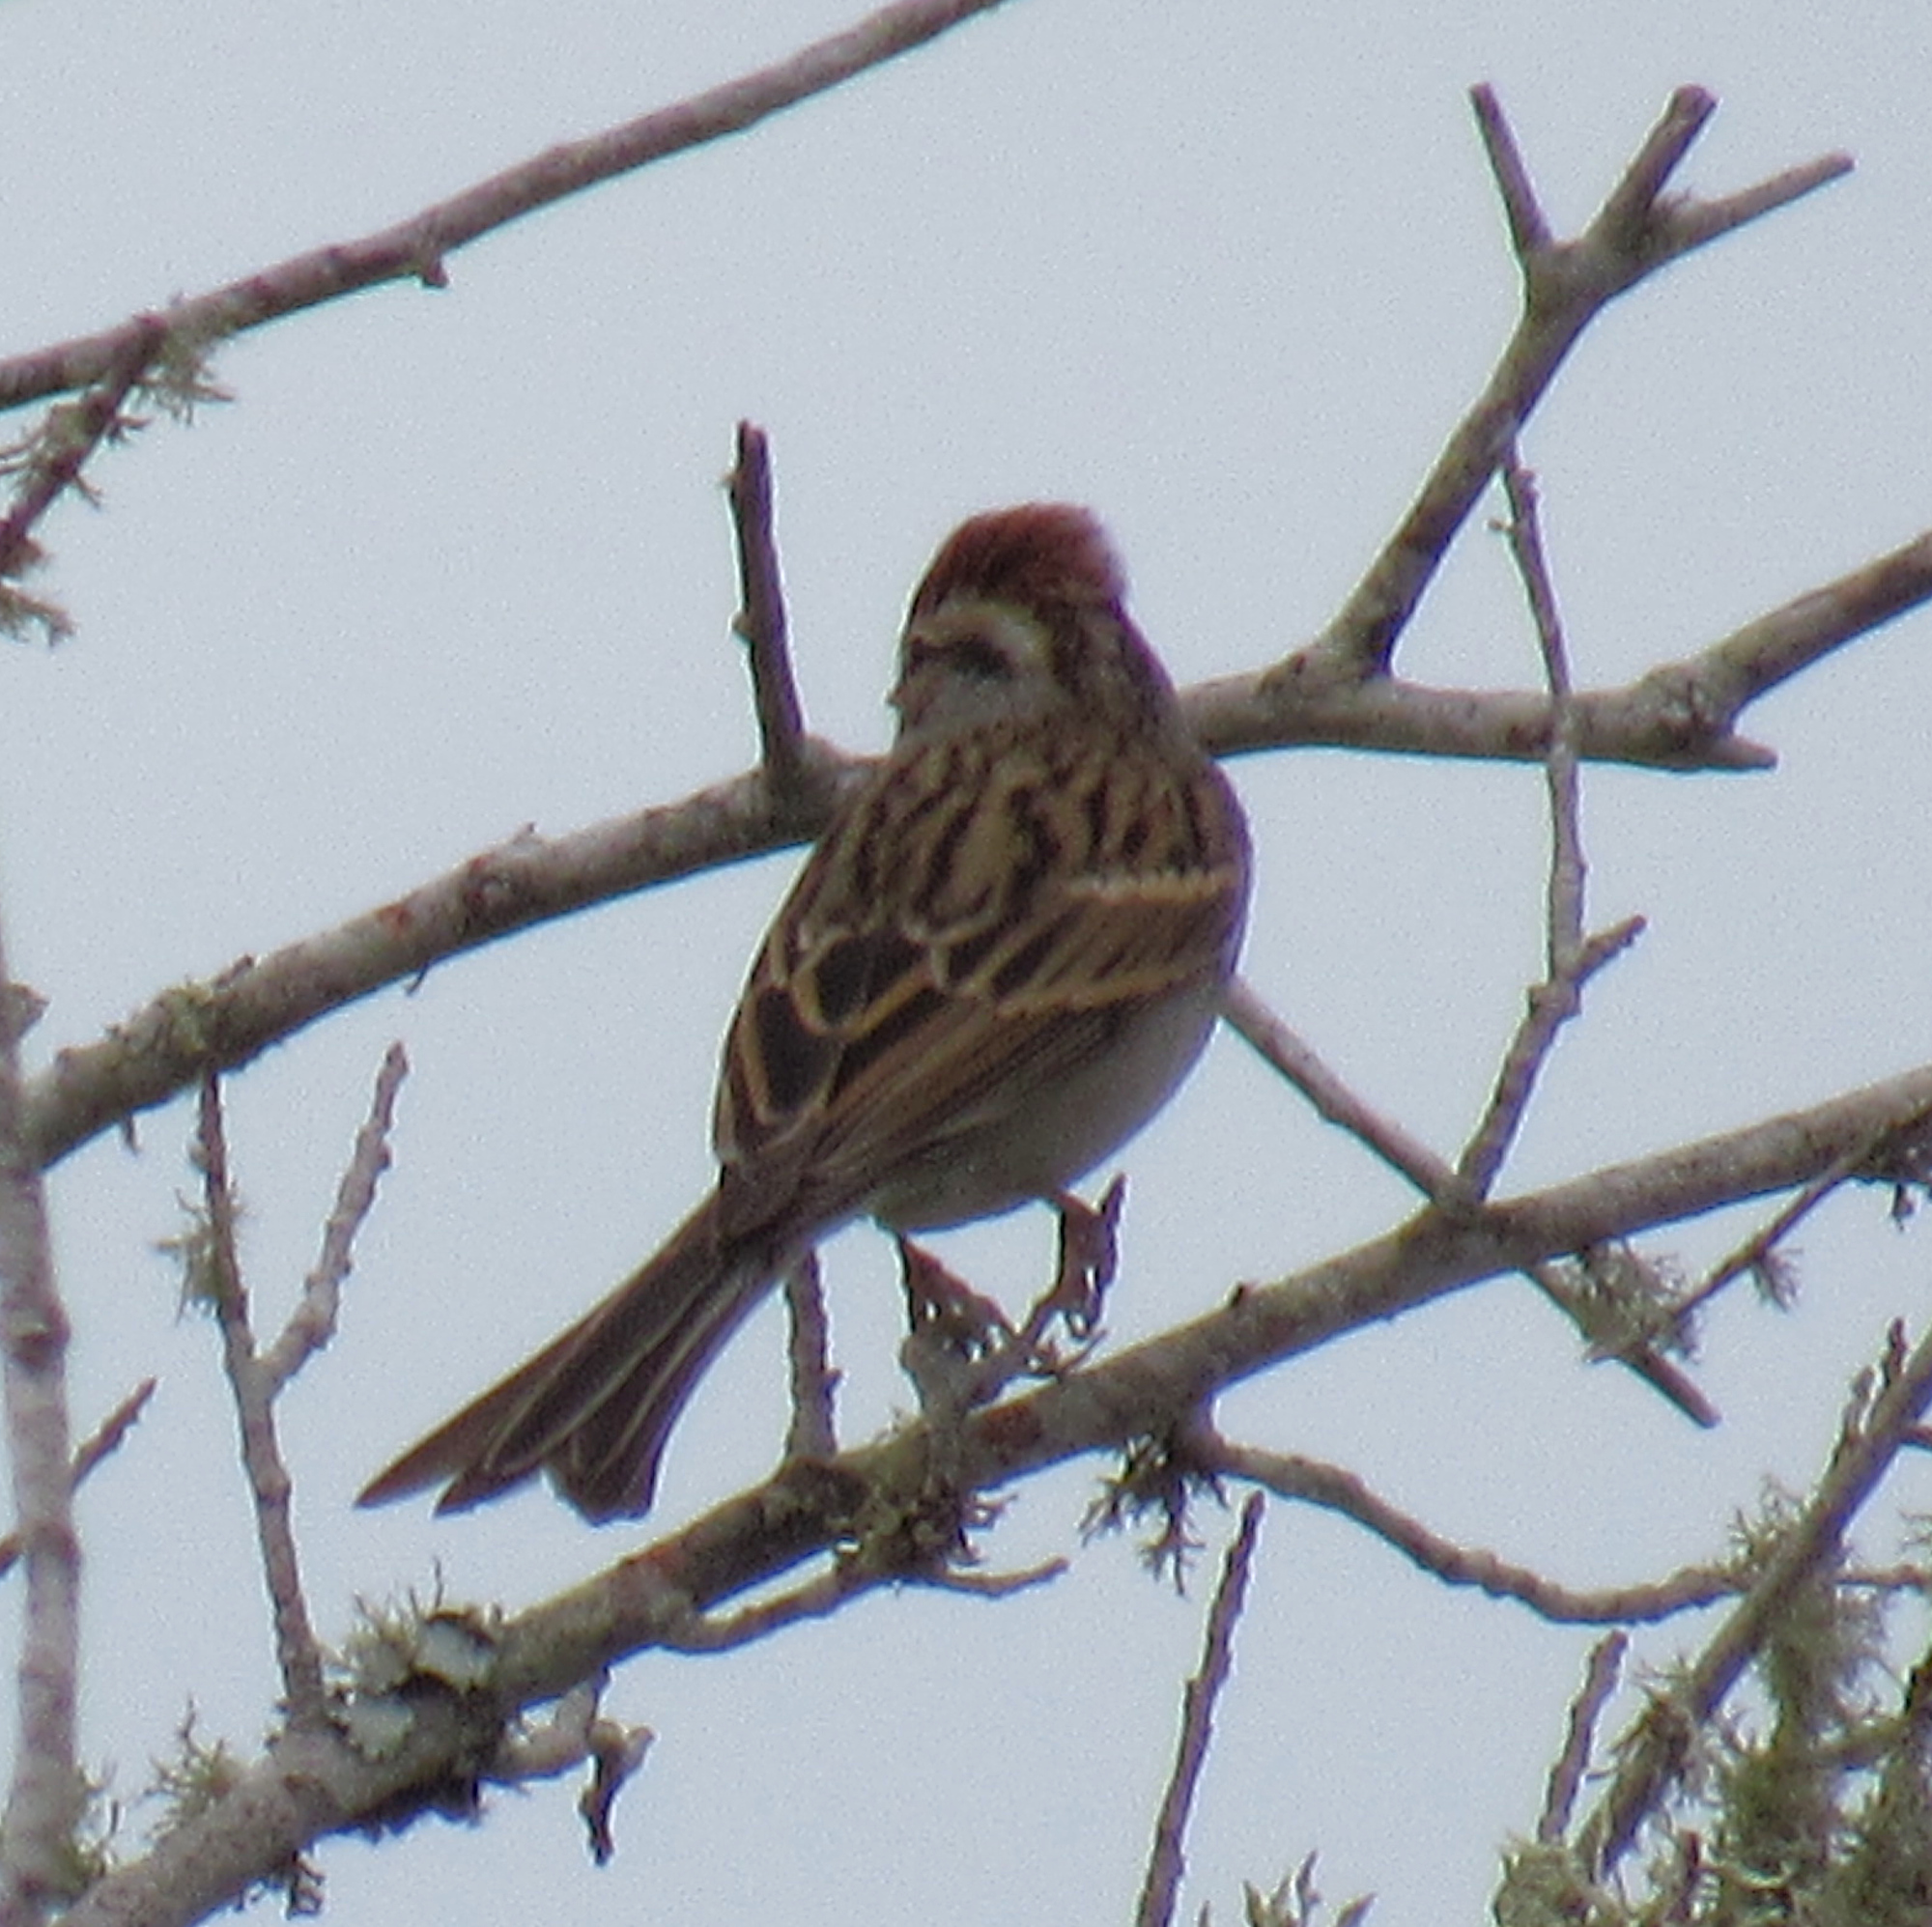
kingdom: Animalia
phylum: Chordata
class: Aves
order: Passeriformes
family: Passerellidae
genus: Spizella
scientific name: Spizella passerina
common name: Chipping sparrow
